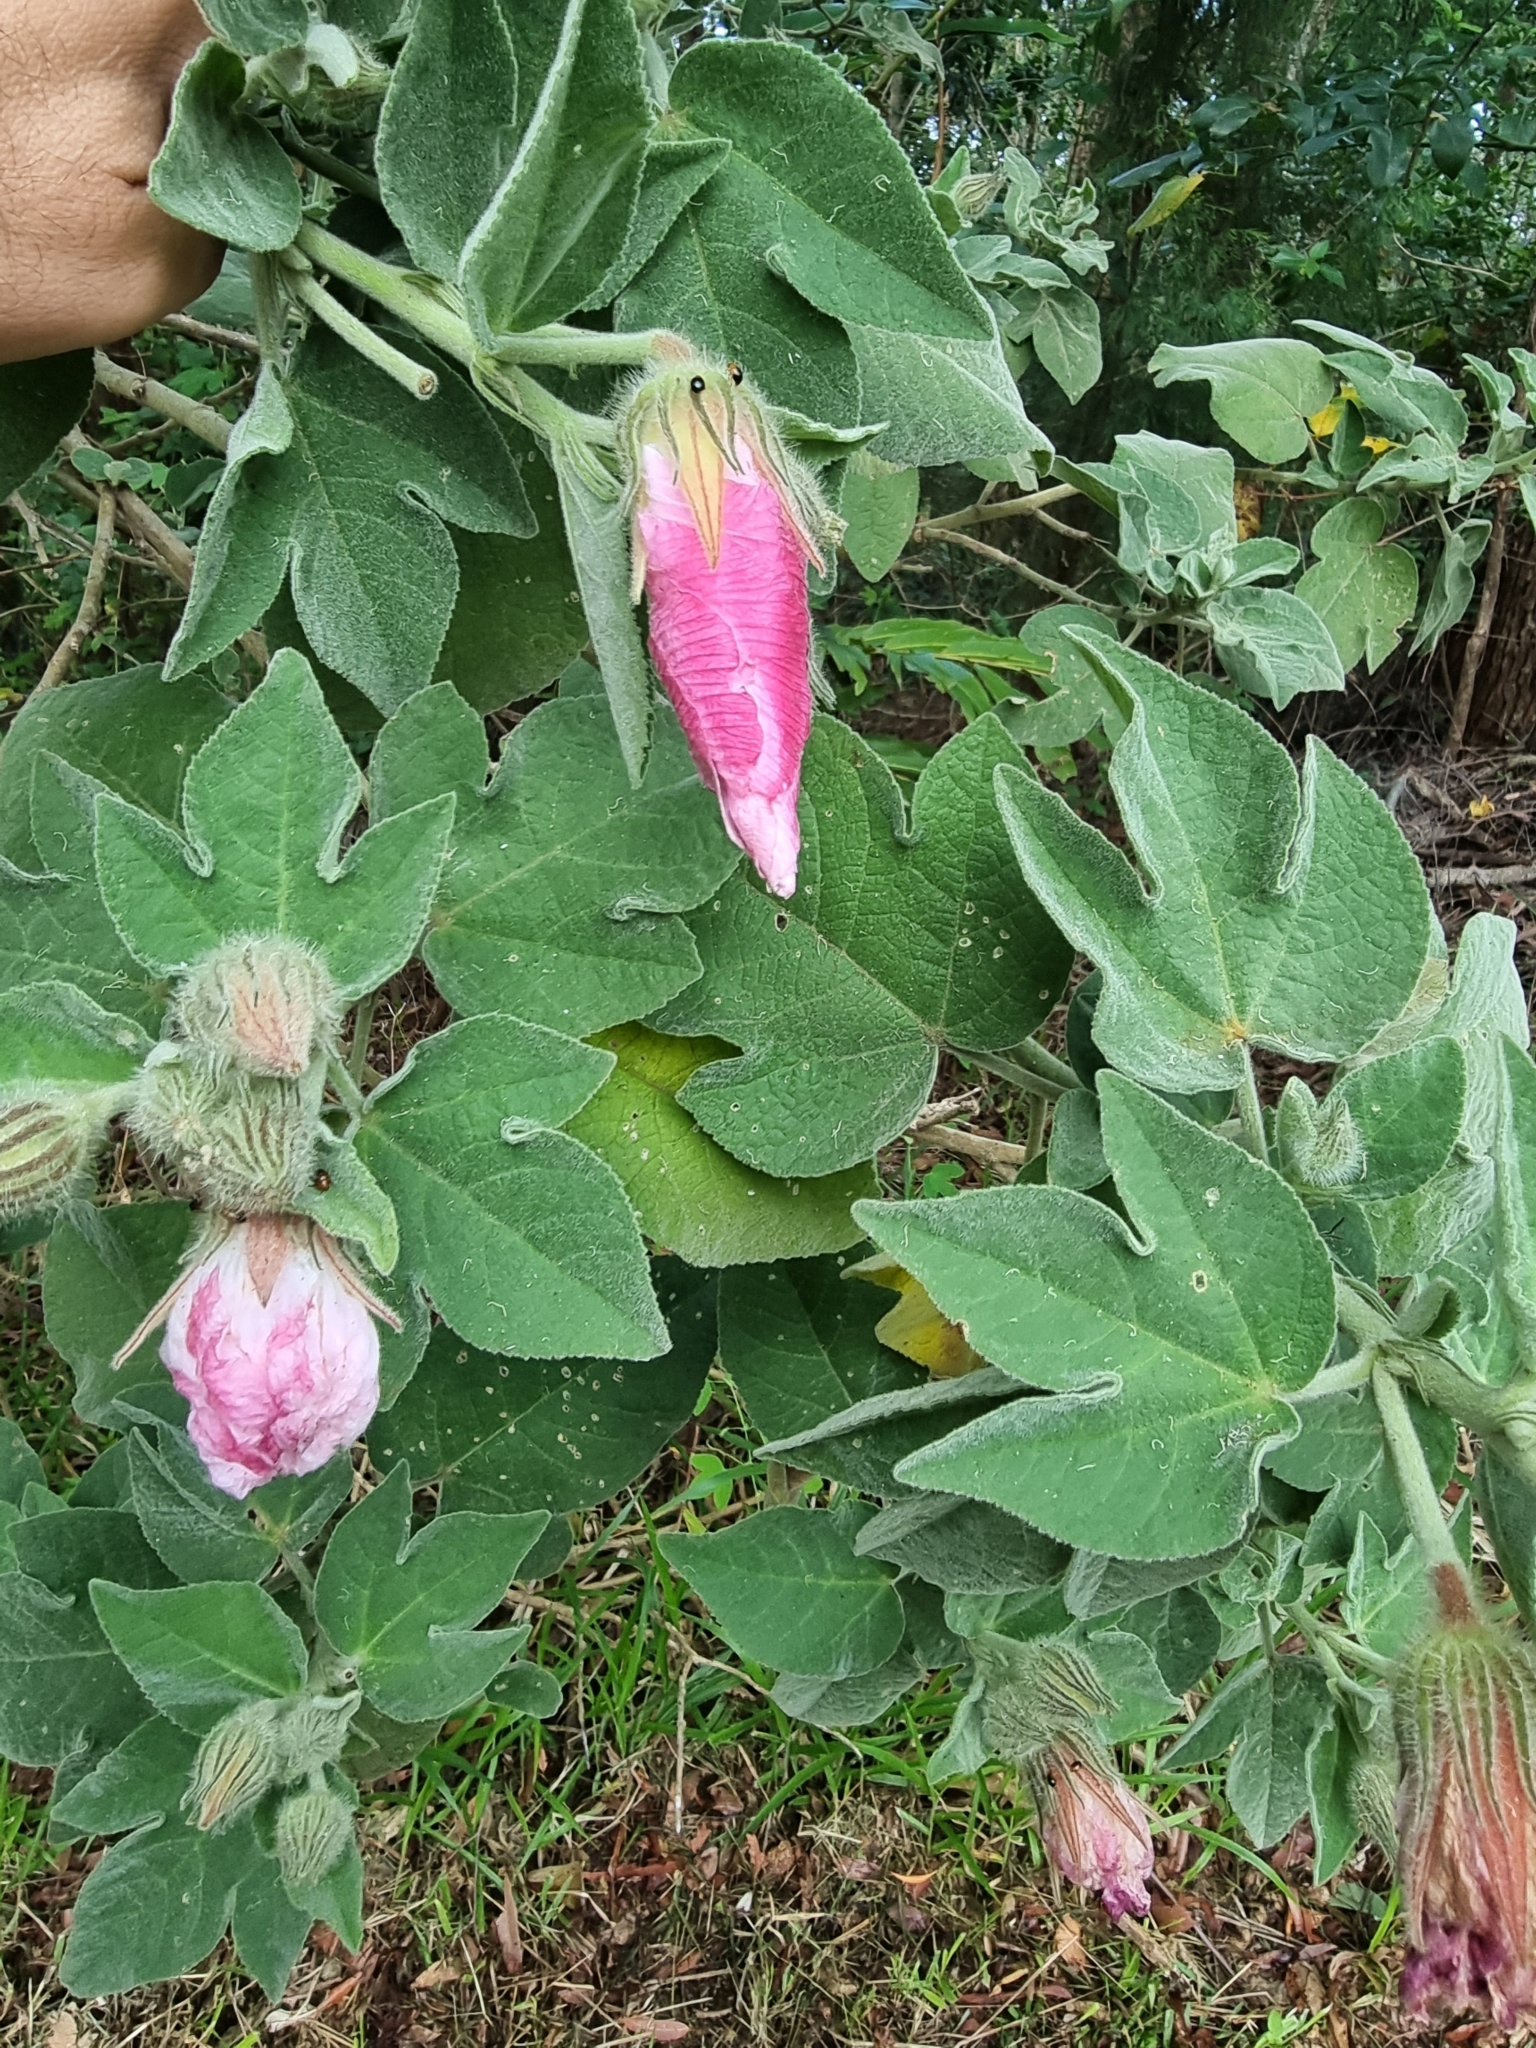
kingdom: Plantae
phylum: Tracheophyta
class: Magnoliopsida
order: Malvales
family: Malvaceae
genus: Hibiscus
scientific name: Hibiscus splendens
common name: Hollyhock-tree
